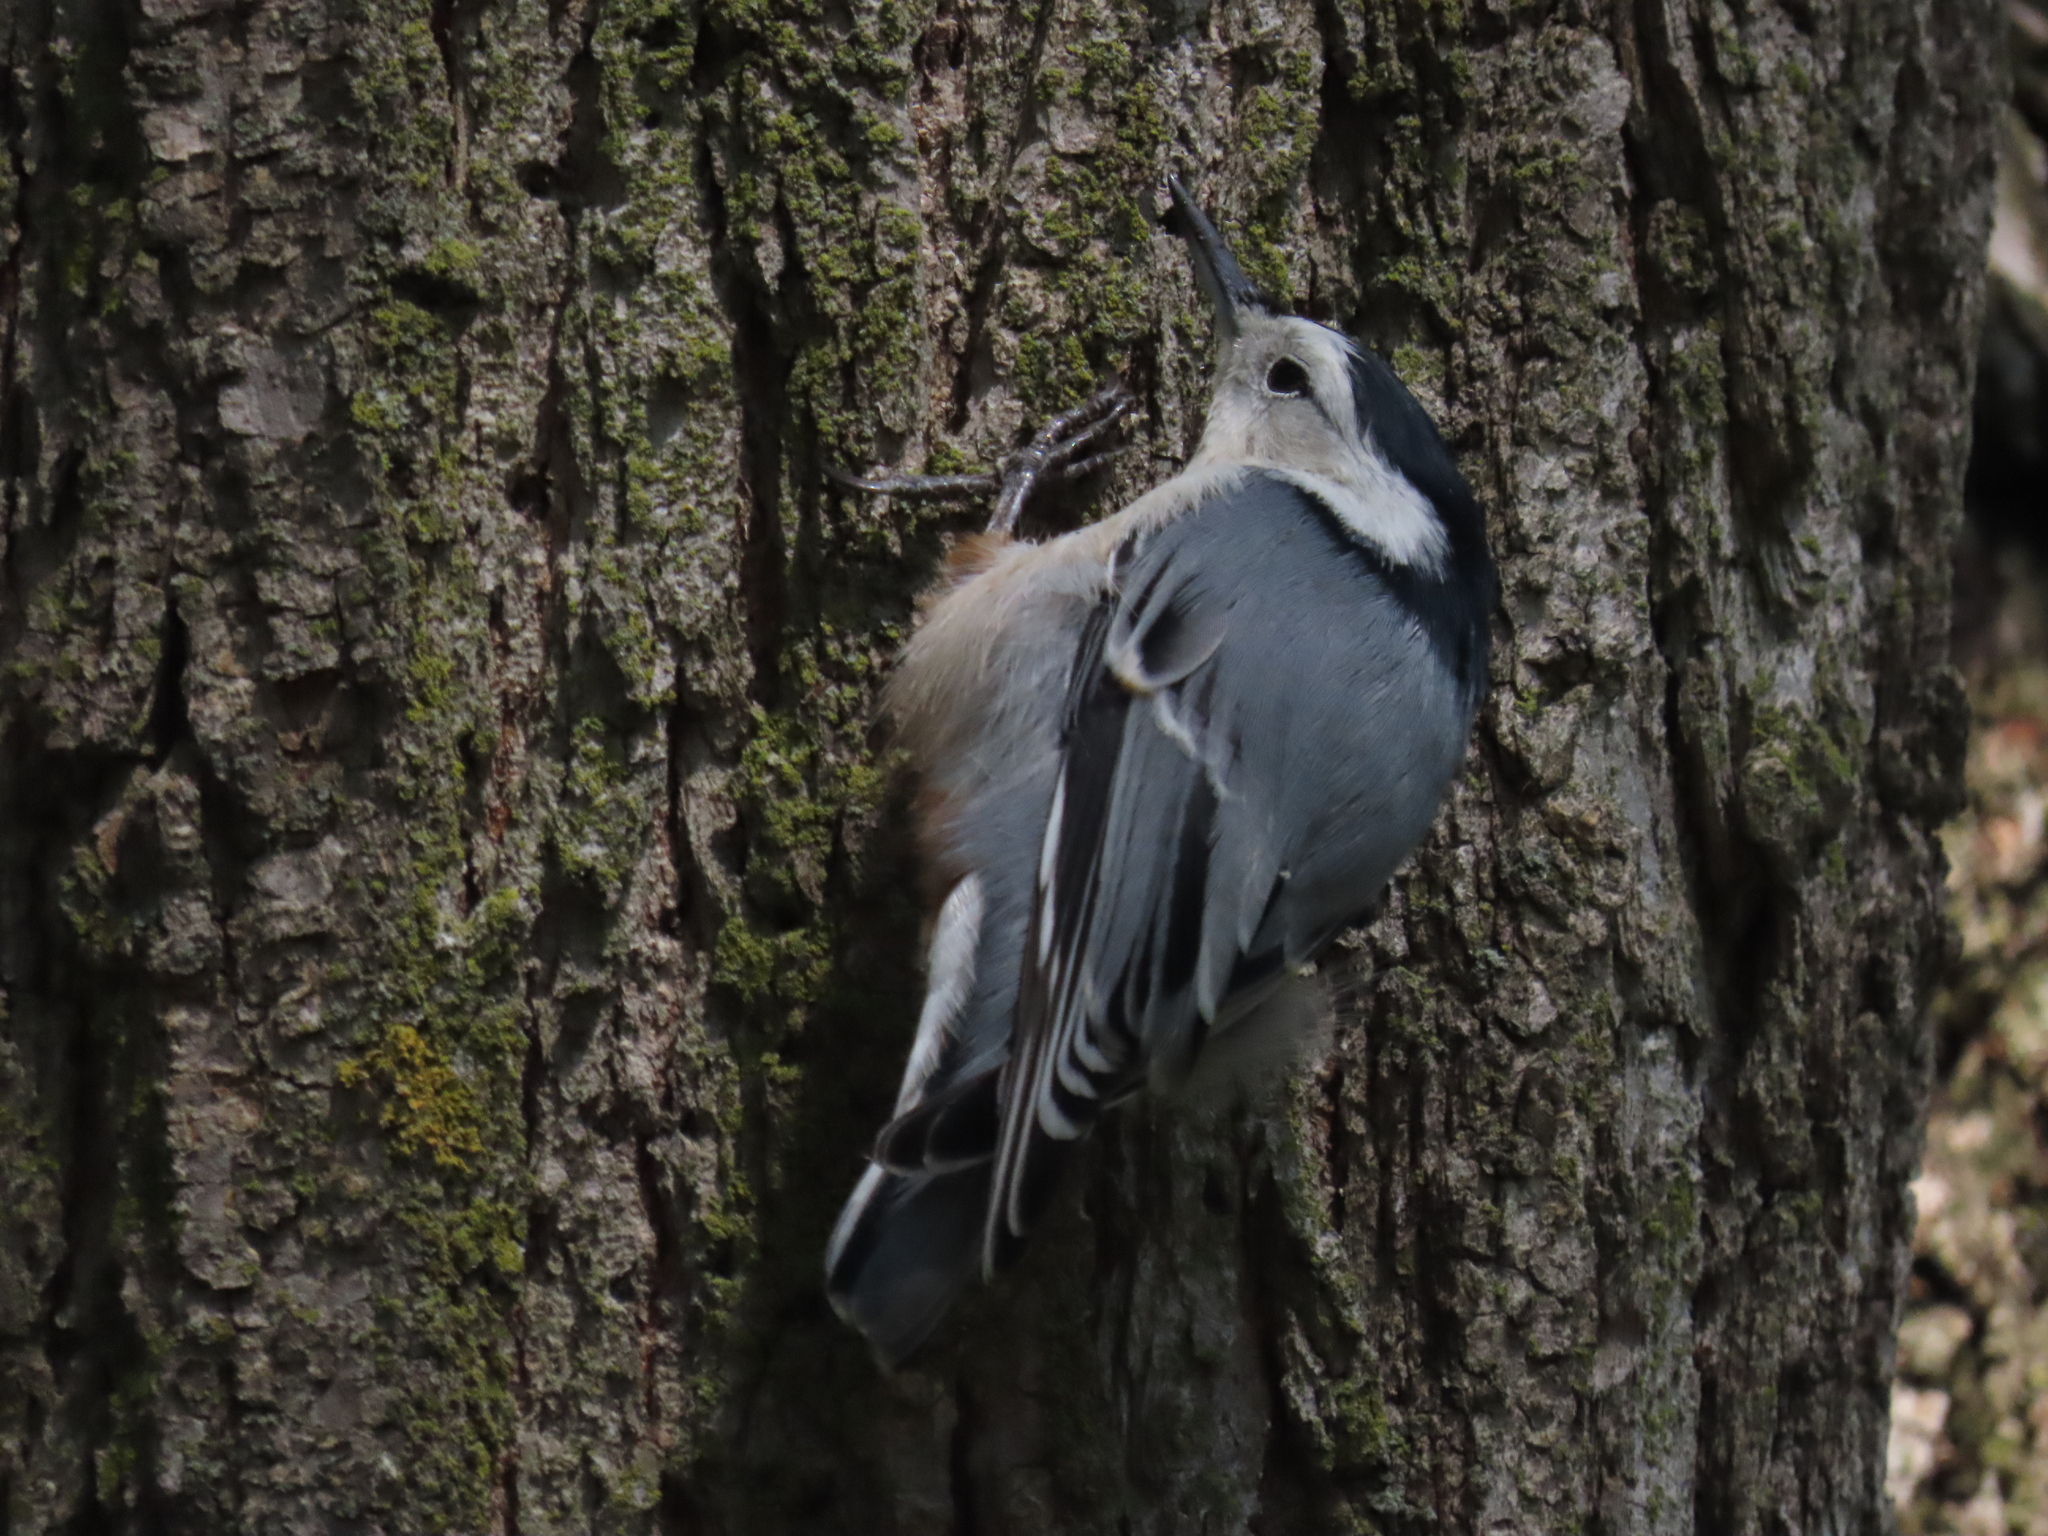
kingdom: Animalia
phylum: Chordata
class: Aves
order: Passeriformes
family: Sittidae
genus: Sitta
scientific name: Sitta carolinensis
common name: White-breasted nuthatch
